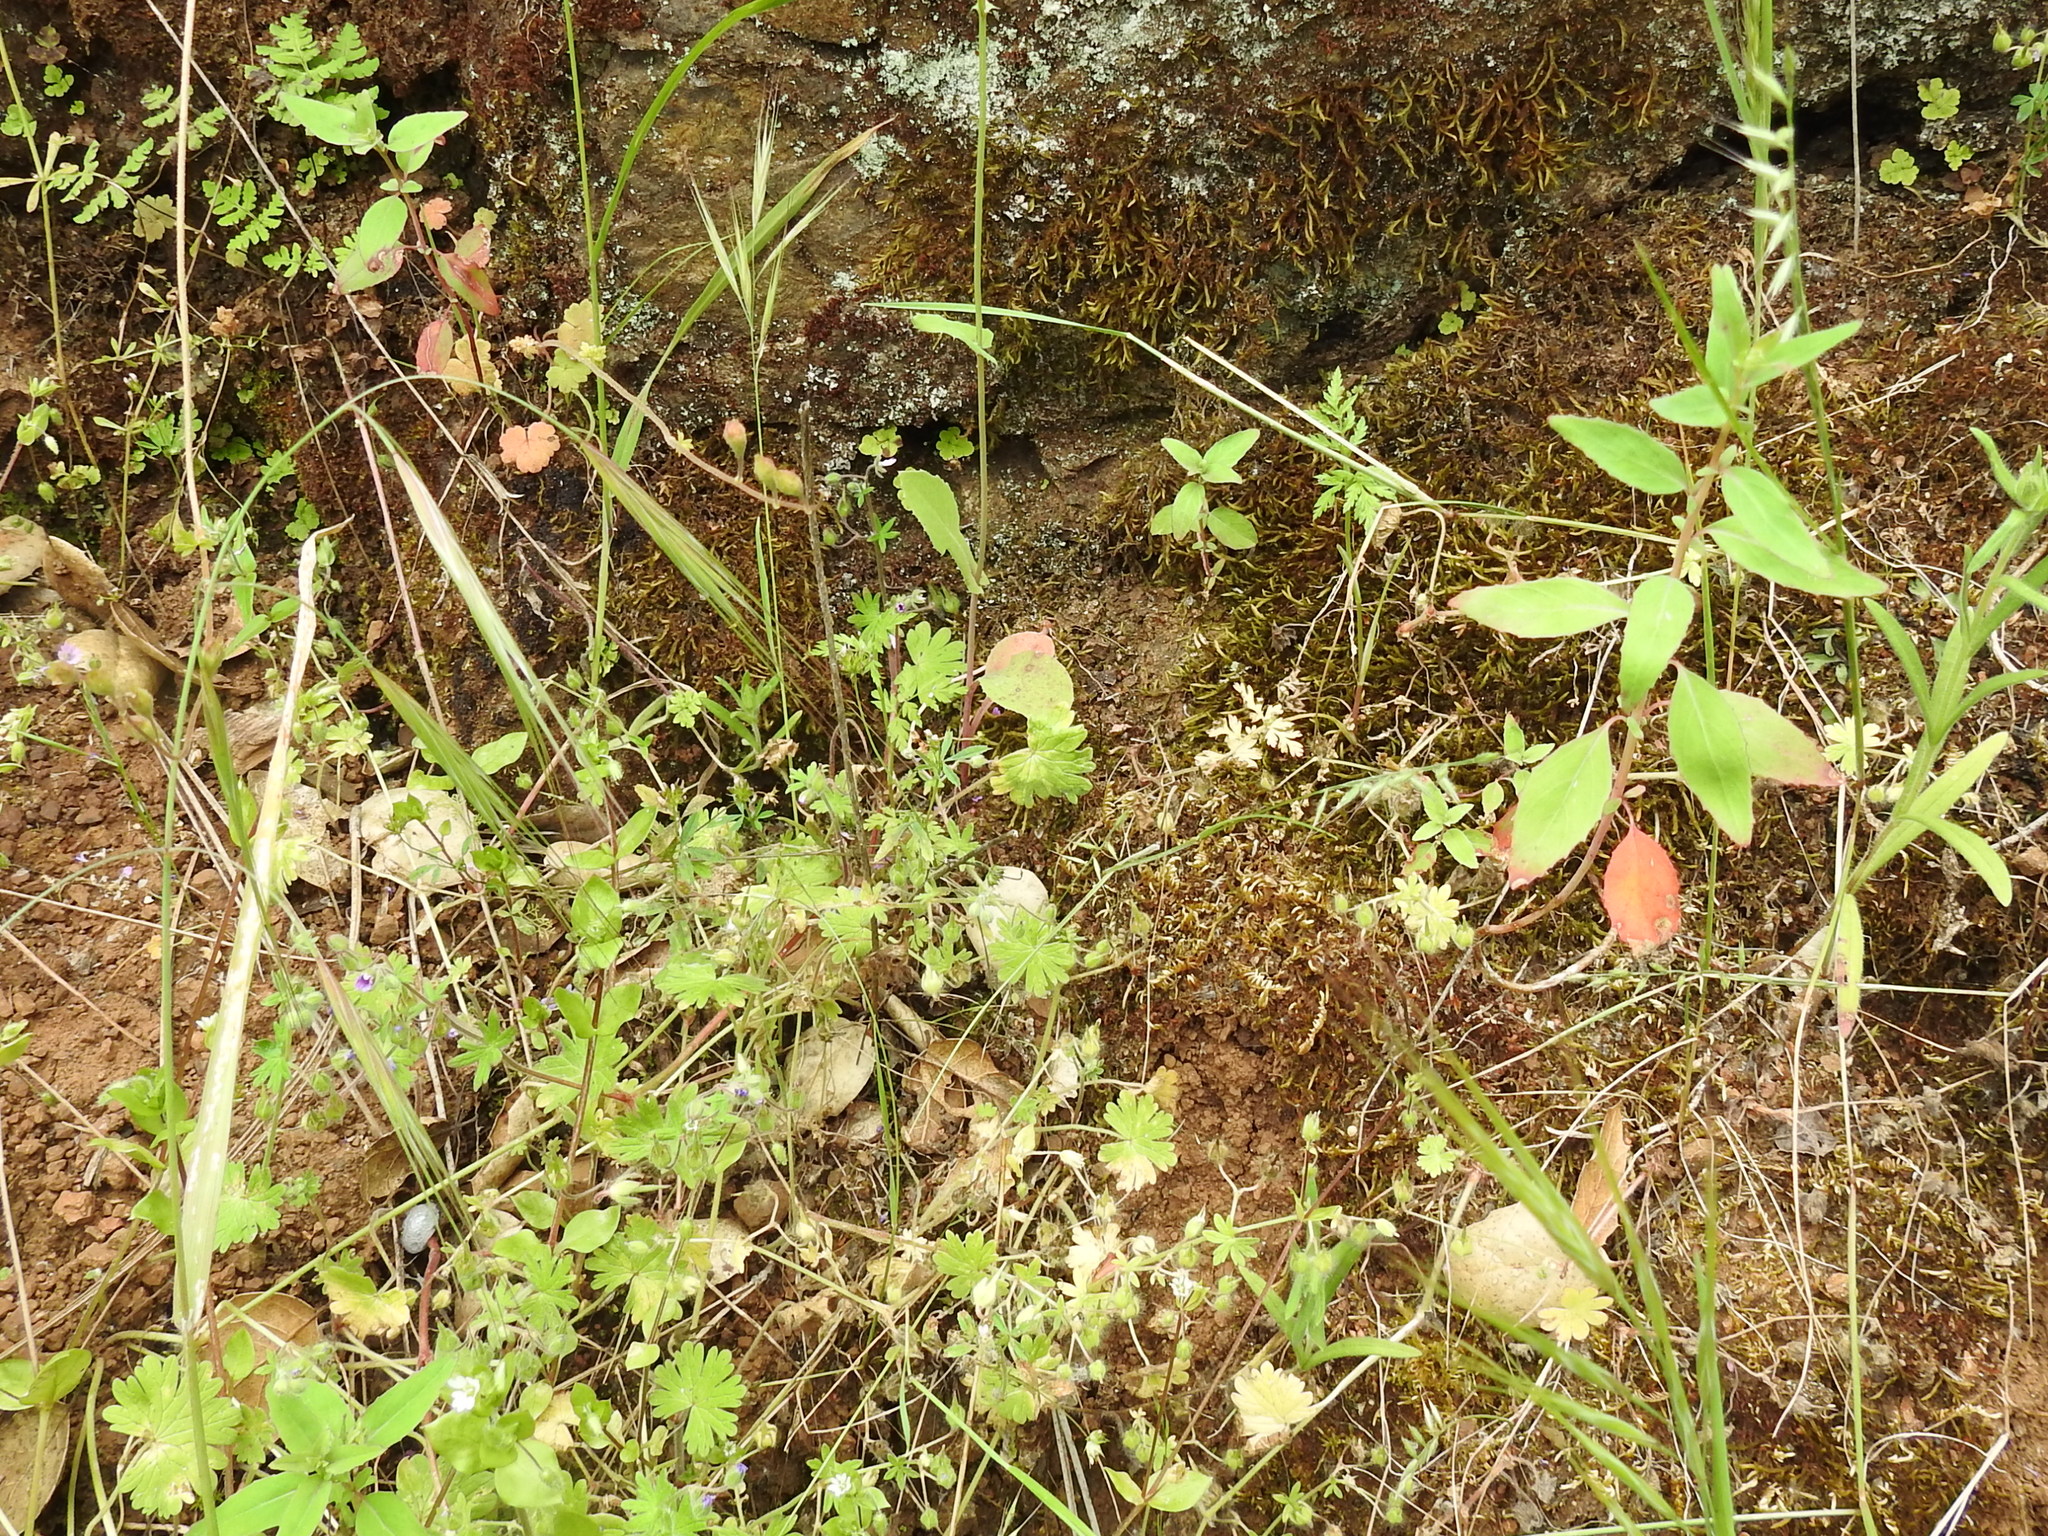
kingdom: Plantae
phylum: Tracheophyta
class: Liliopsida
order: Poales
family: Poaceae
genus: Festuca
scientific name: Festuca microstachys
